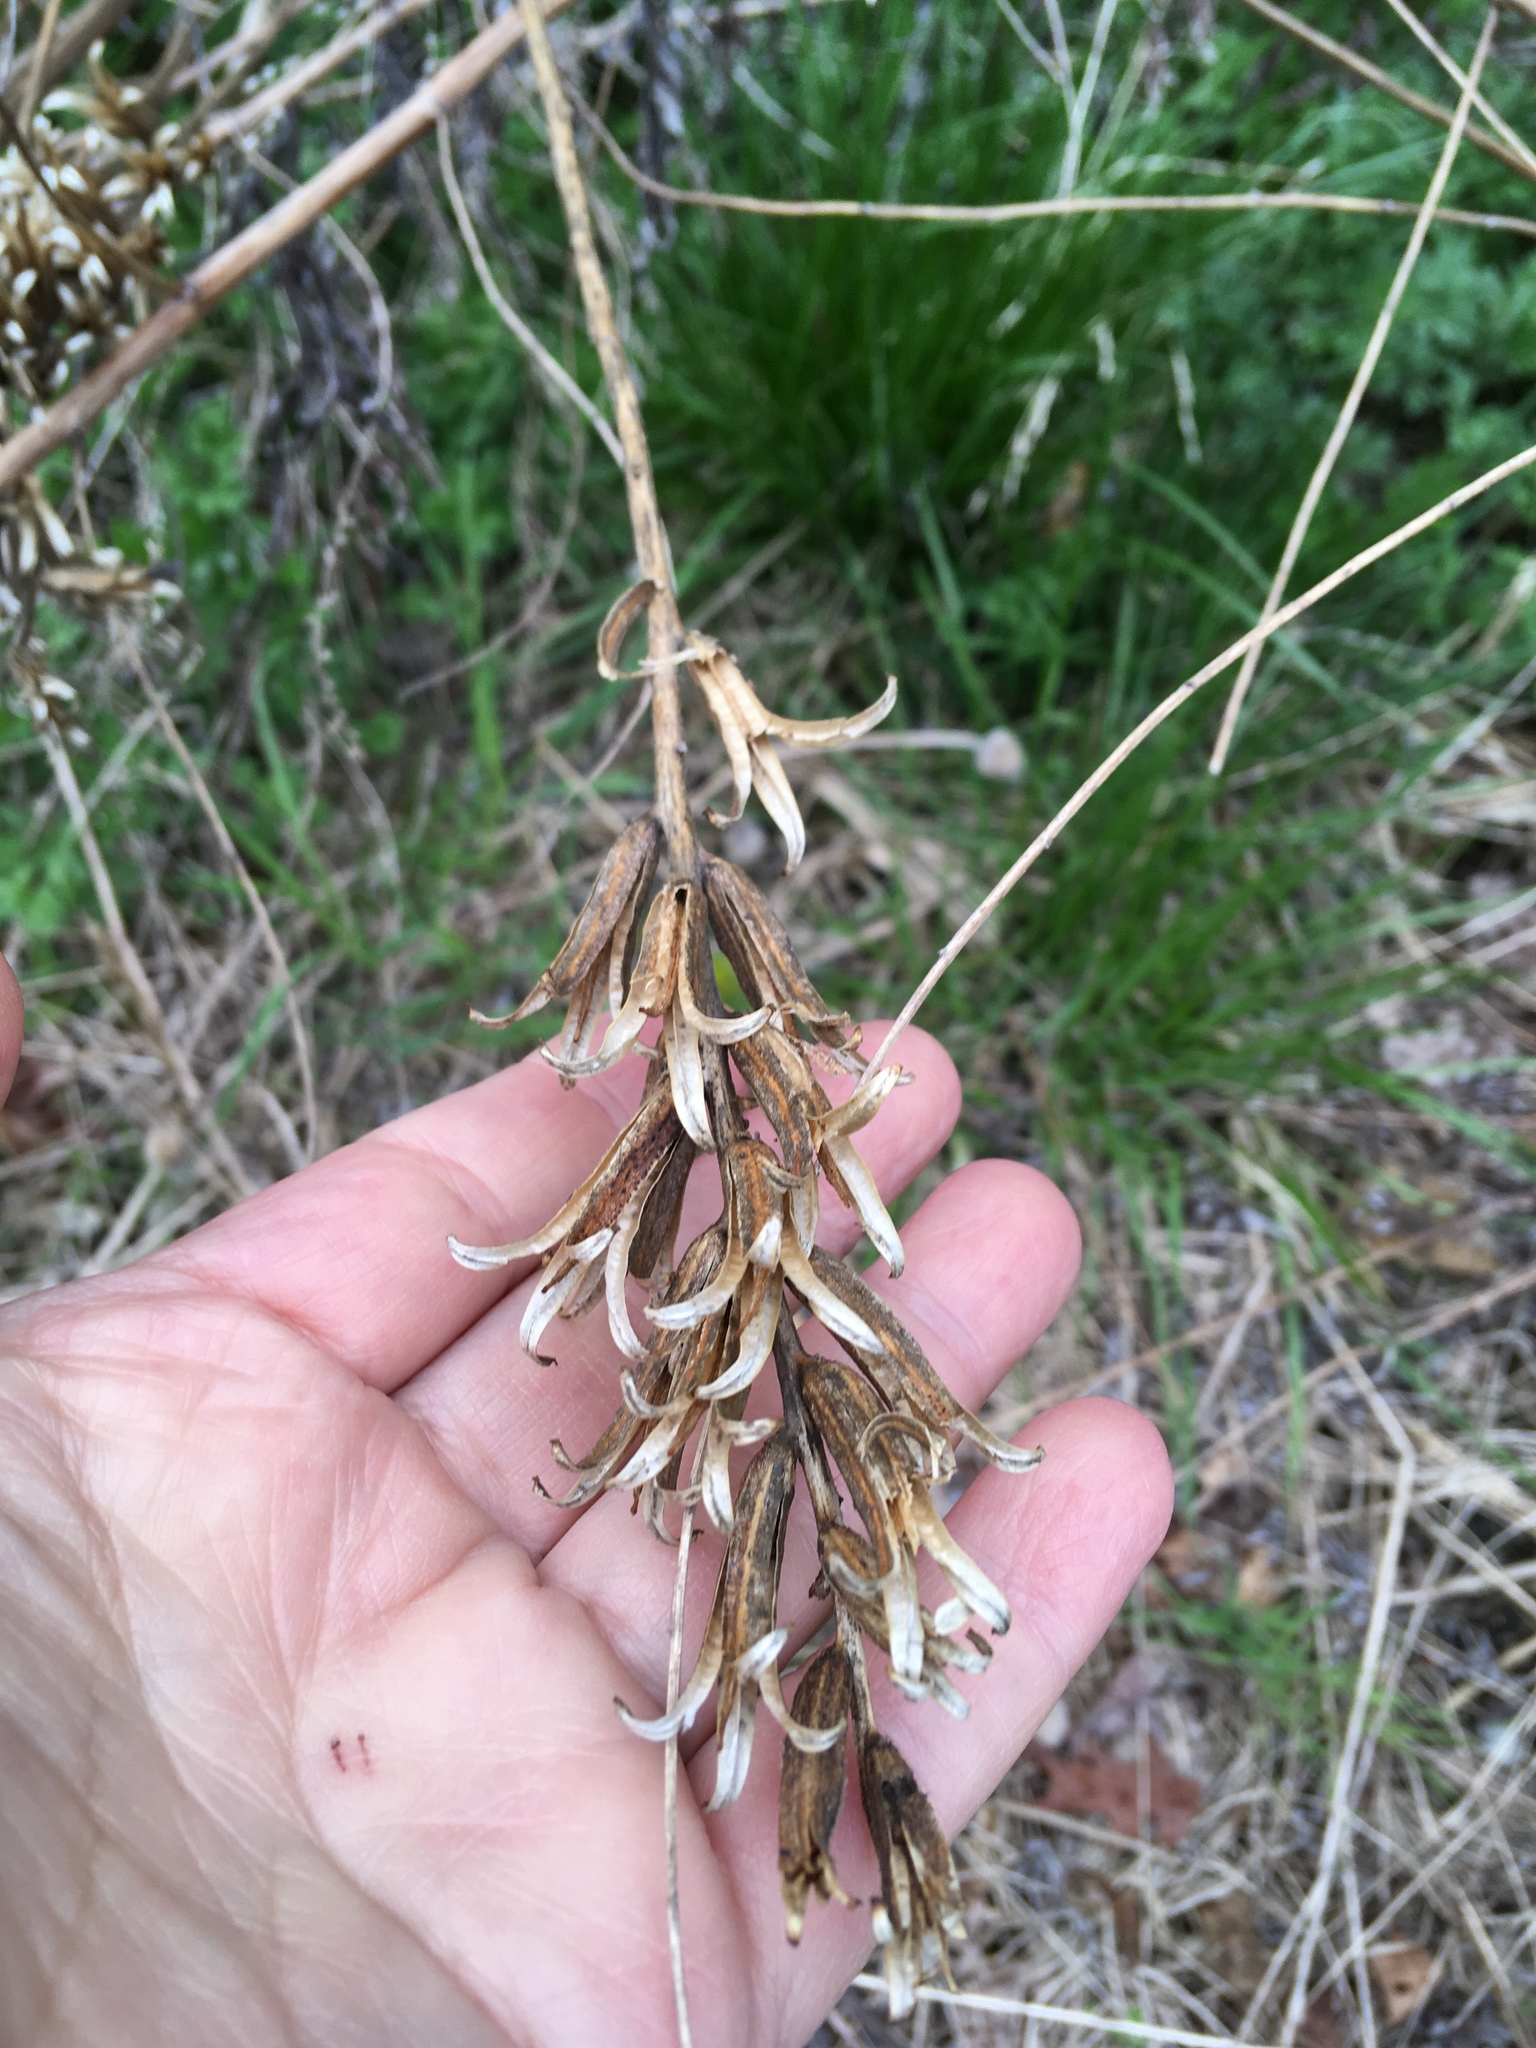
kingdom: Plantae
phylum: Tracheophyta
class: Magnoliopsida
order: Myrtales
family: Onagraceae
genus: Oenothera
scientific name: Oenothera biennis
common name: Common evening-primrose
